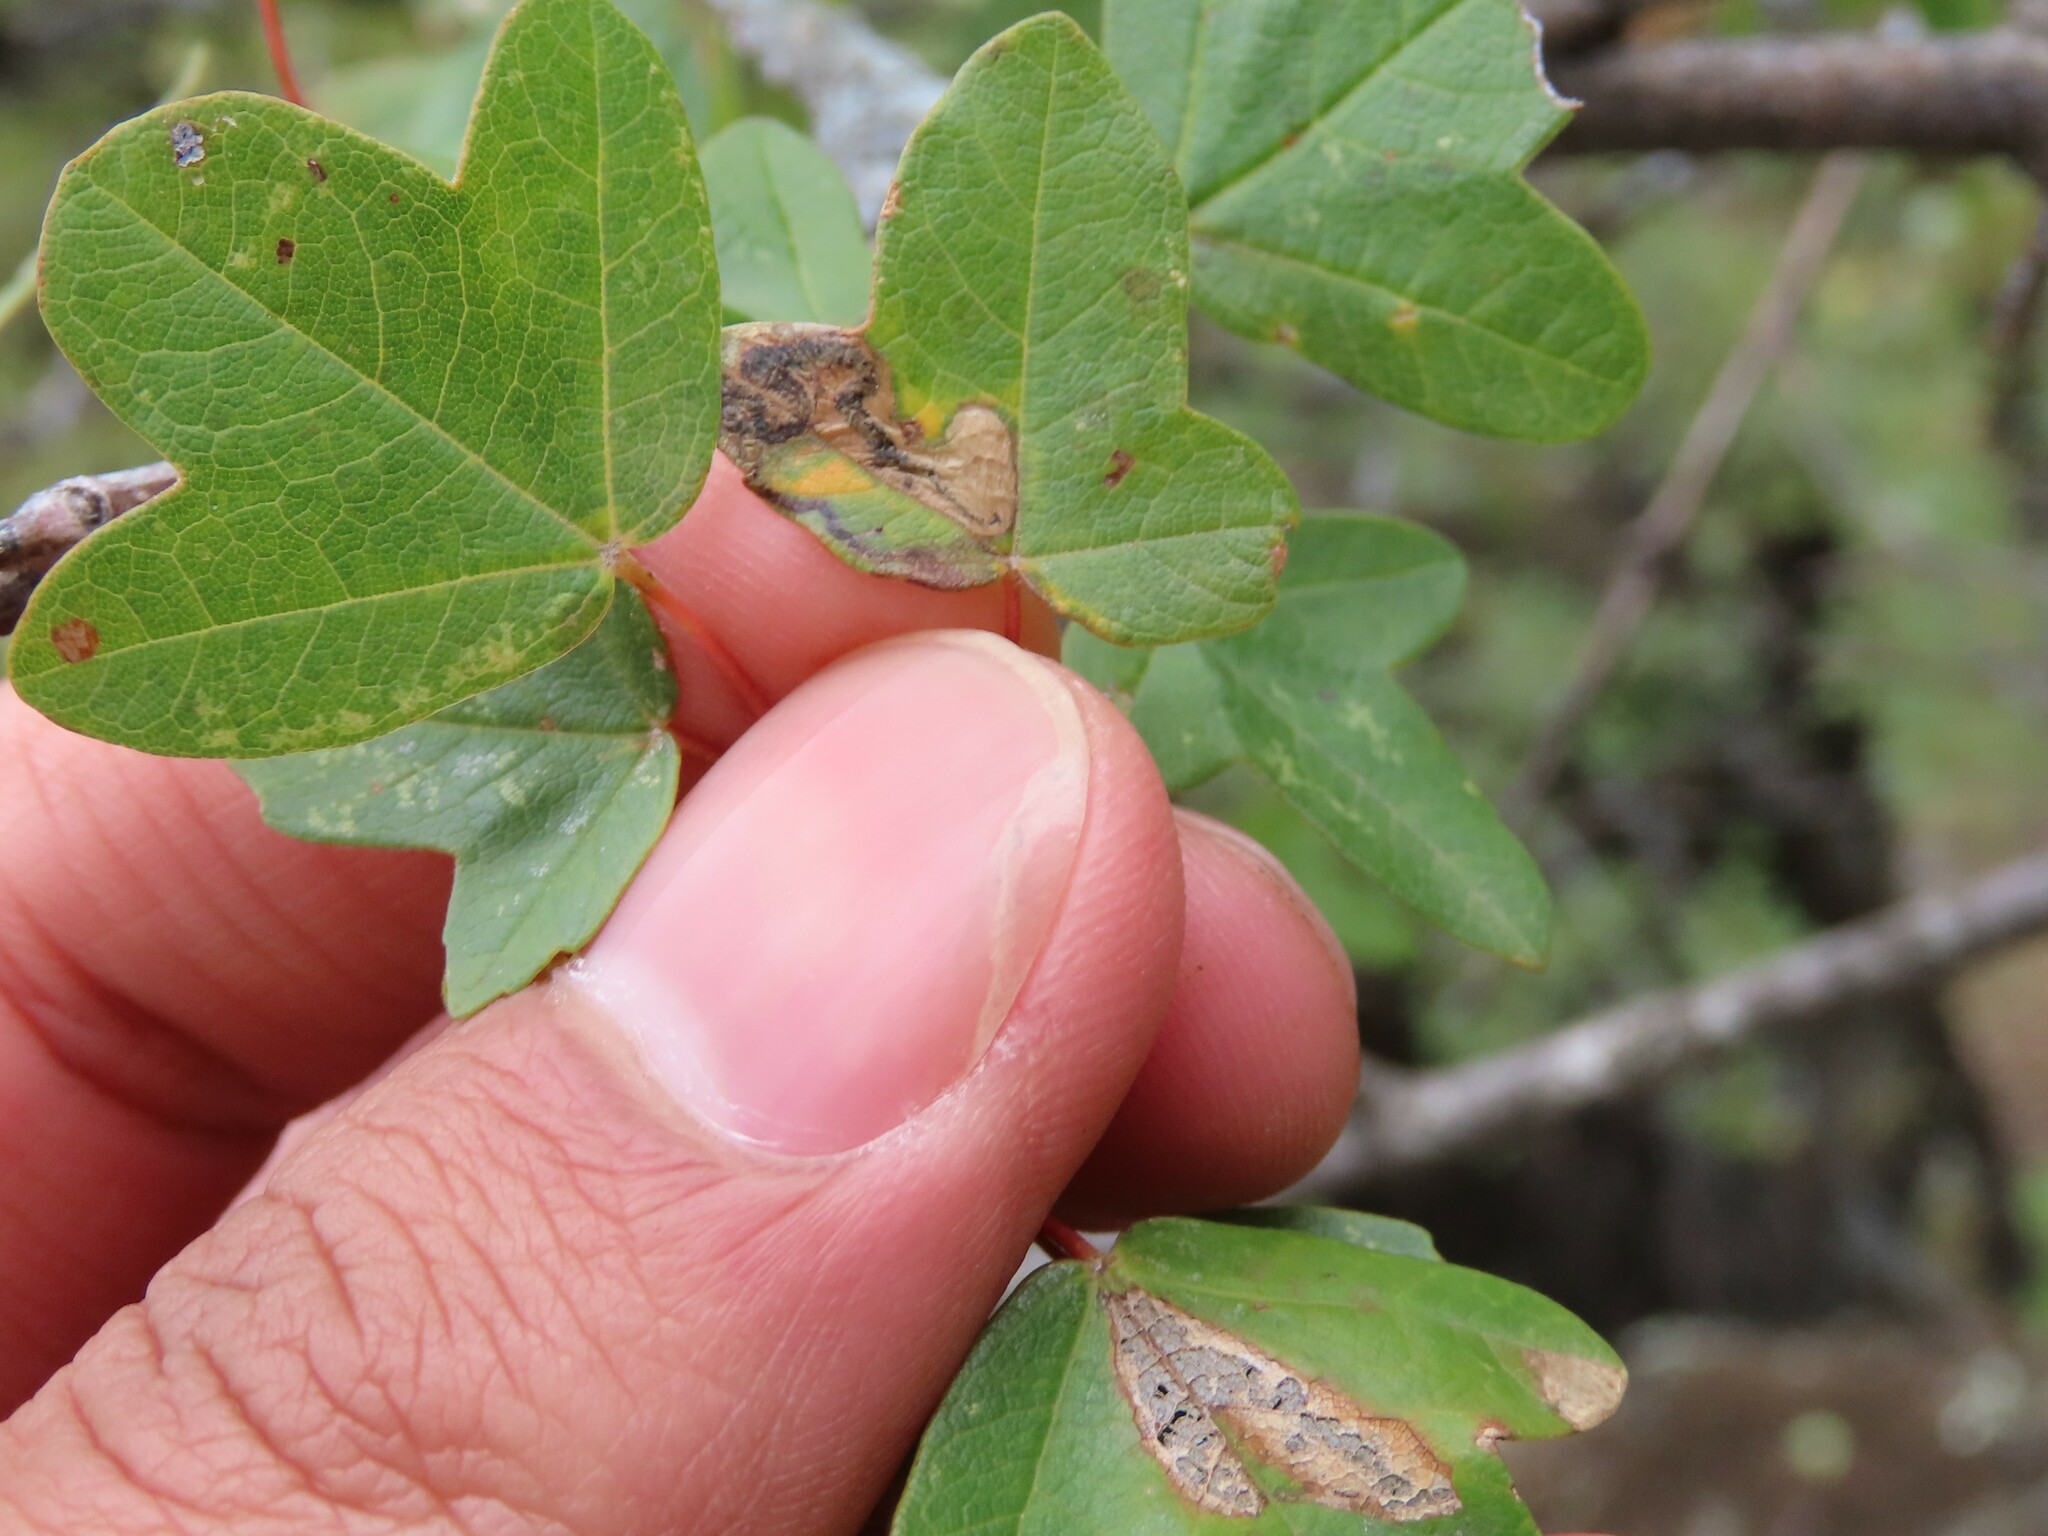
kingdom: Plantae
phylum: Tracheophyta
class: Magnoliopsida
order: Sapindales
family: Sapindaceae
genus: Acer
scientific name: Acer monspessulanum
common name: Montpellier maple
